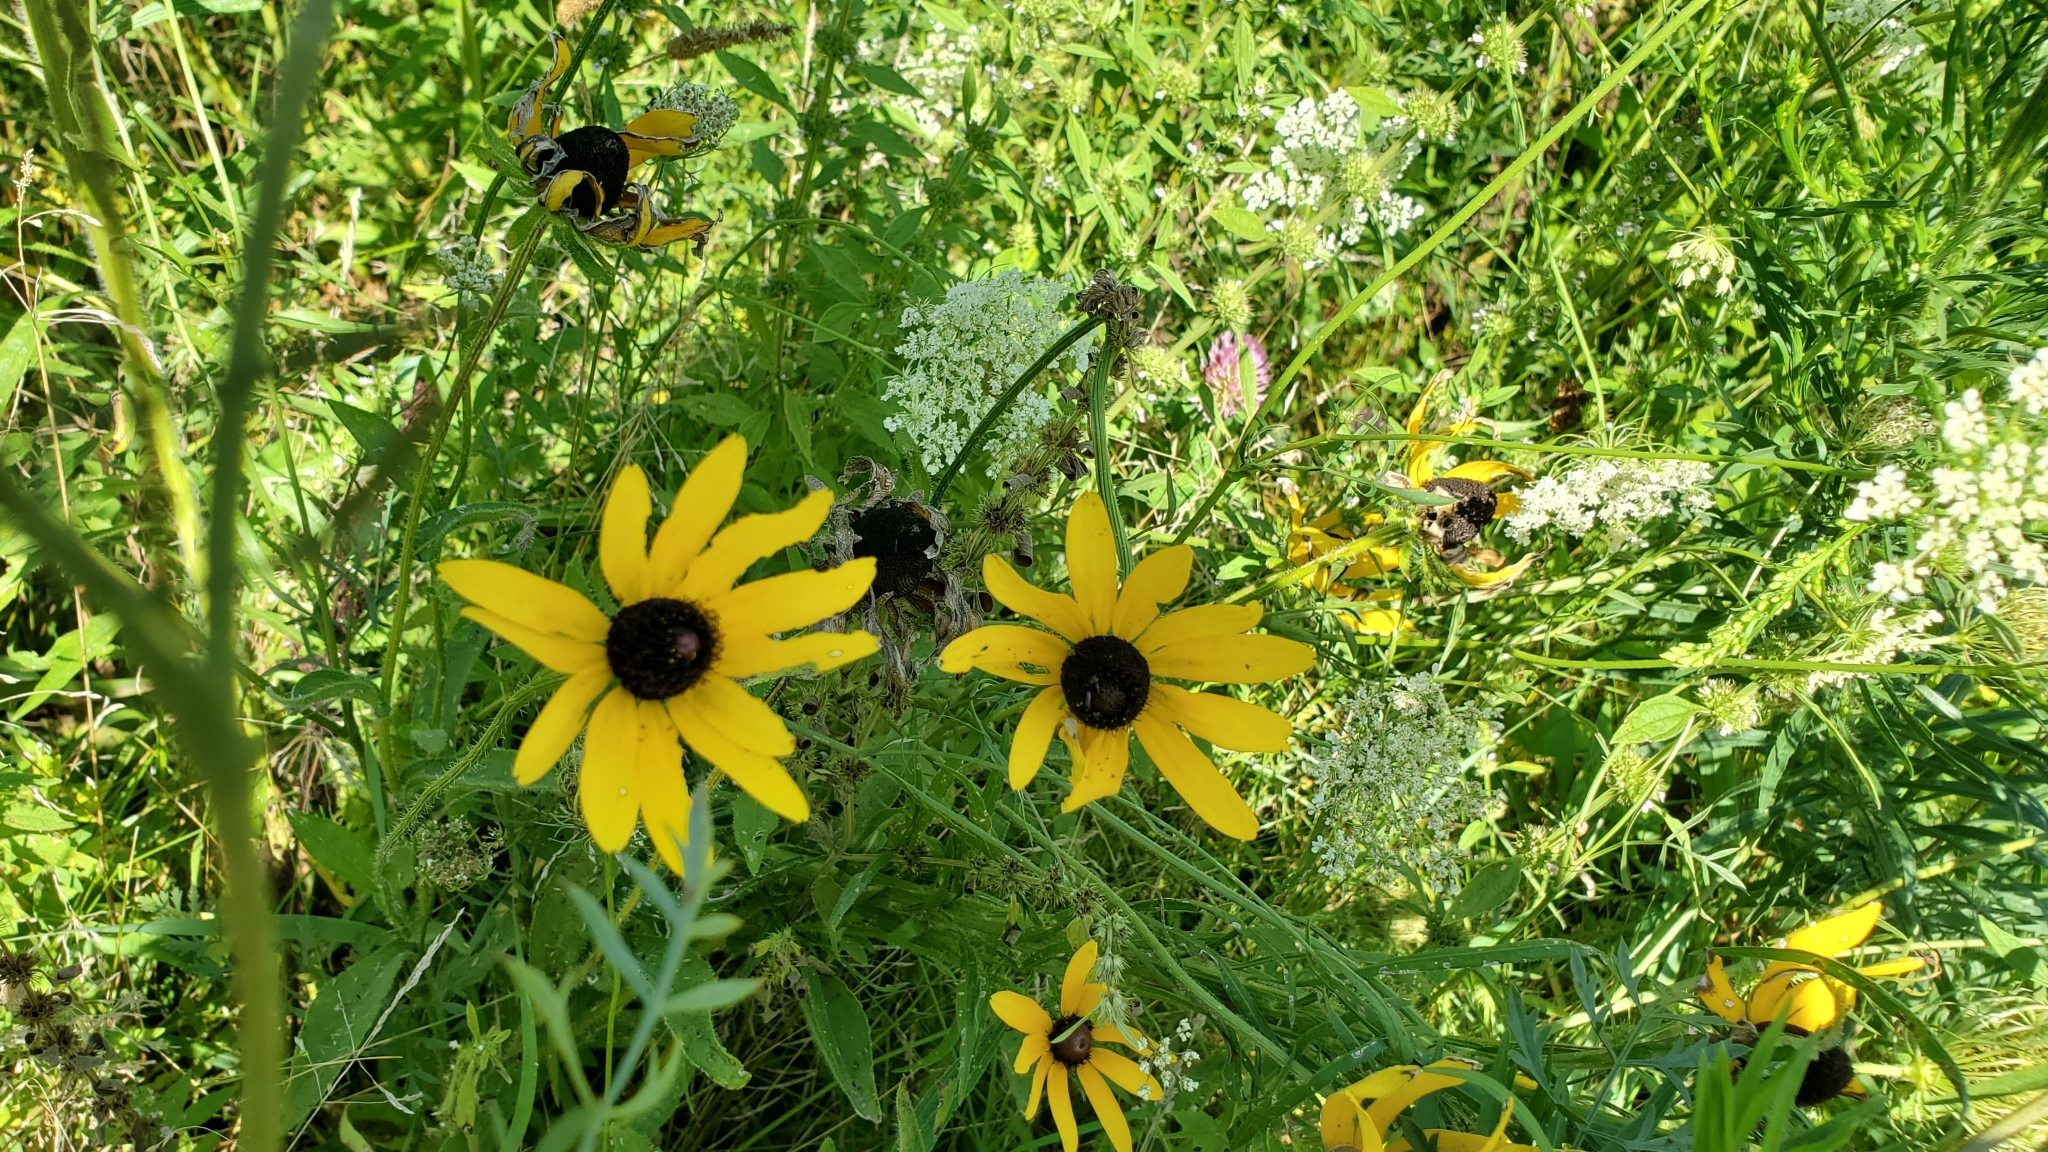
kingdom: Plantae
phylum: Tracheophyta
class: Magnoliopsida
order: Asterales
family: Asteraceae
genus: Rudbeckia
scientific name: Rudbeckia hirta
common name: Black-eyed-susan
